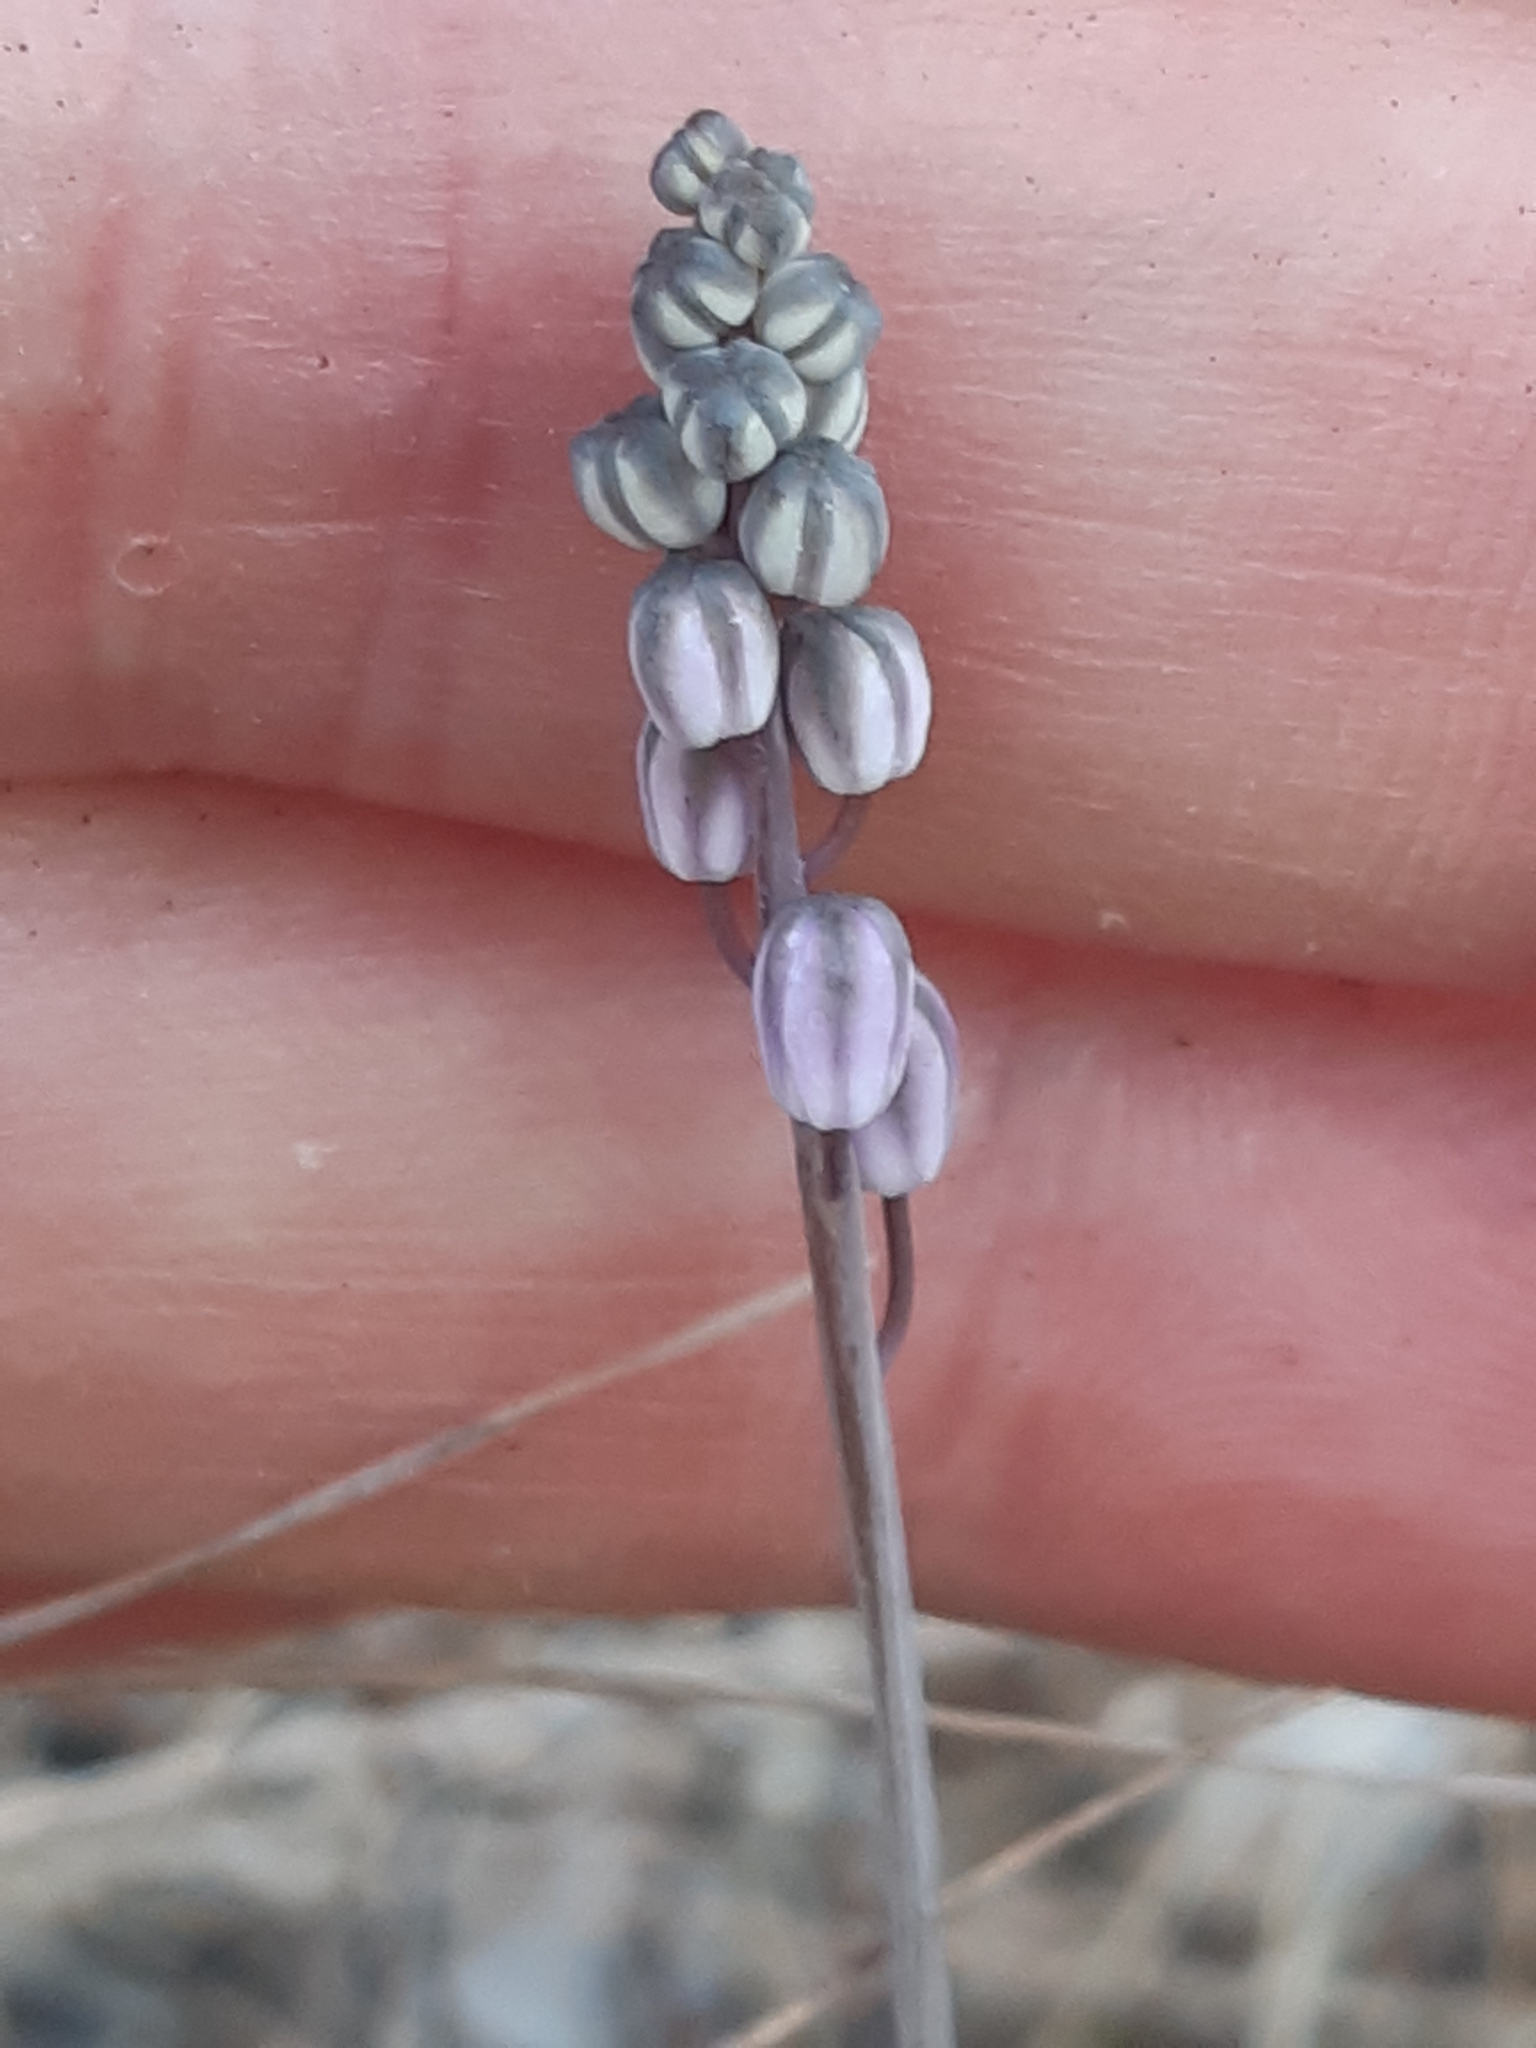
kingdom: Plantae
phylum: Tracheophyta
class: Liliopsida
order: Asparagales
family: Asparagaceae
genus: Prospero
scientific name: Prospero autumnale
